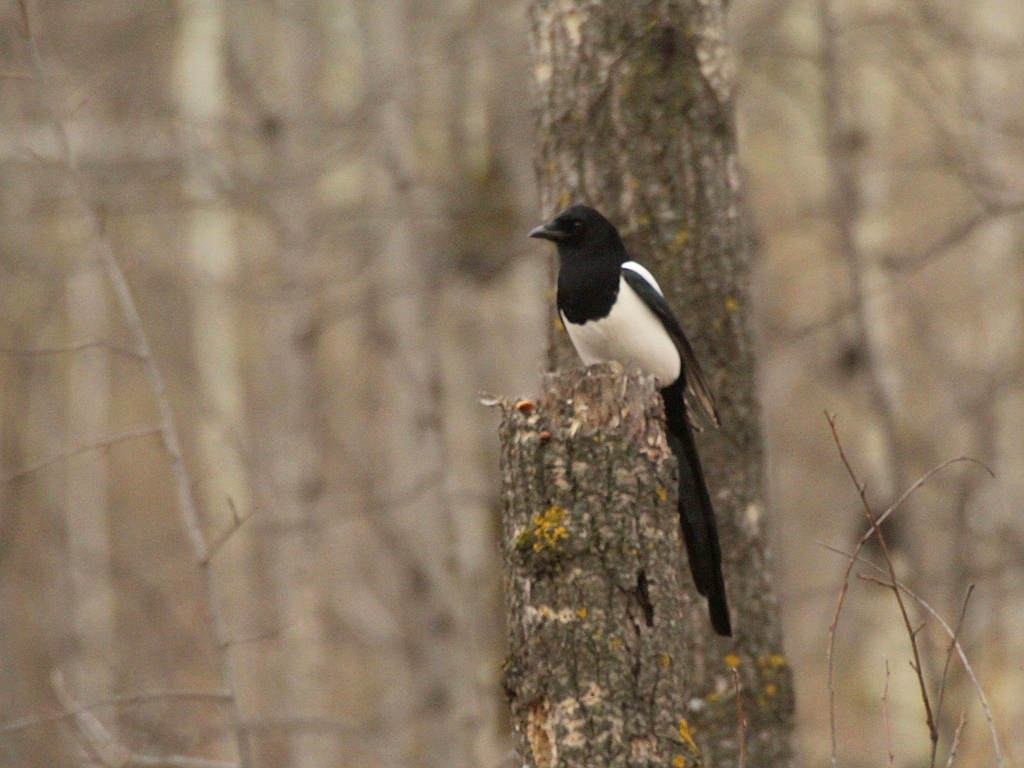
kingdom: Animalia
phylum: Chordata
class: Aves
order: Passeriformes
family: Corvidae
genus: Pica
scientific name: Pica pica
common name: Eurasian magpie
